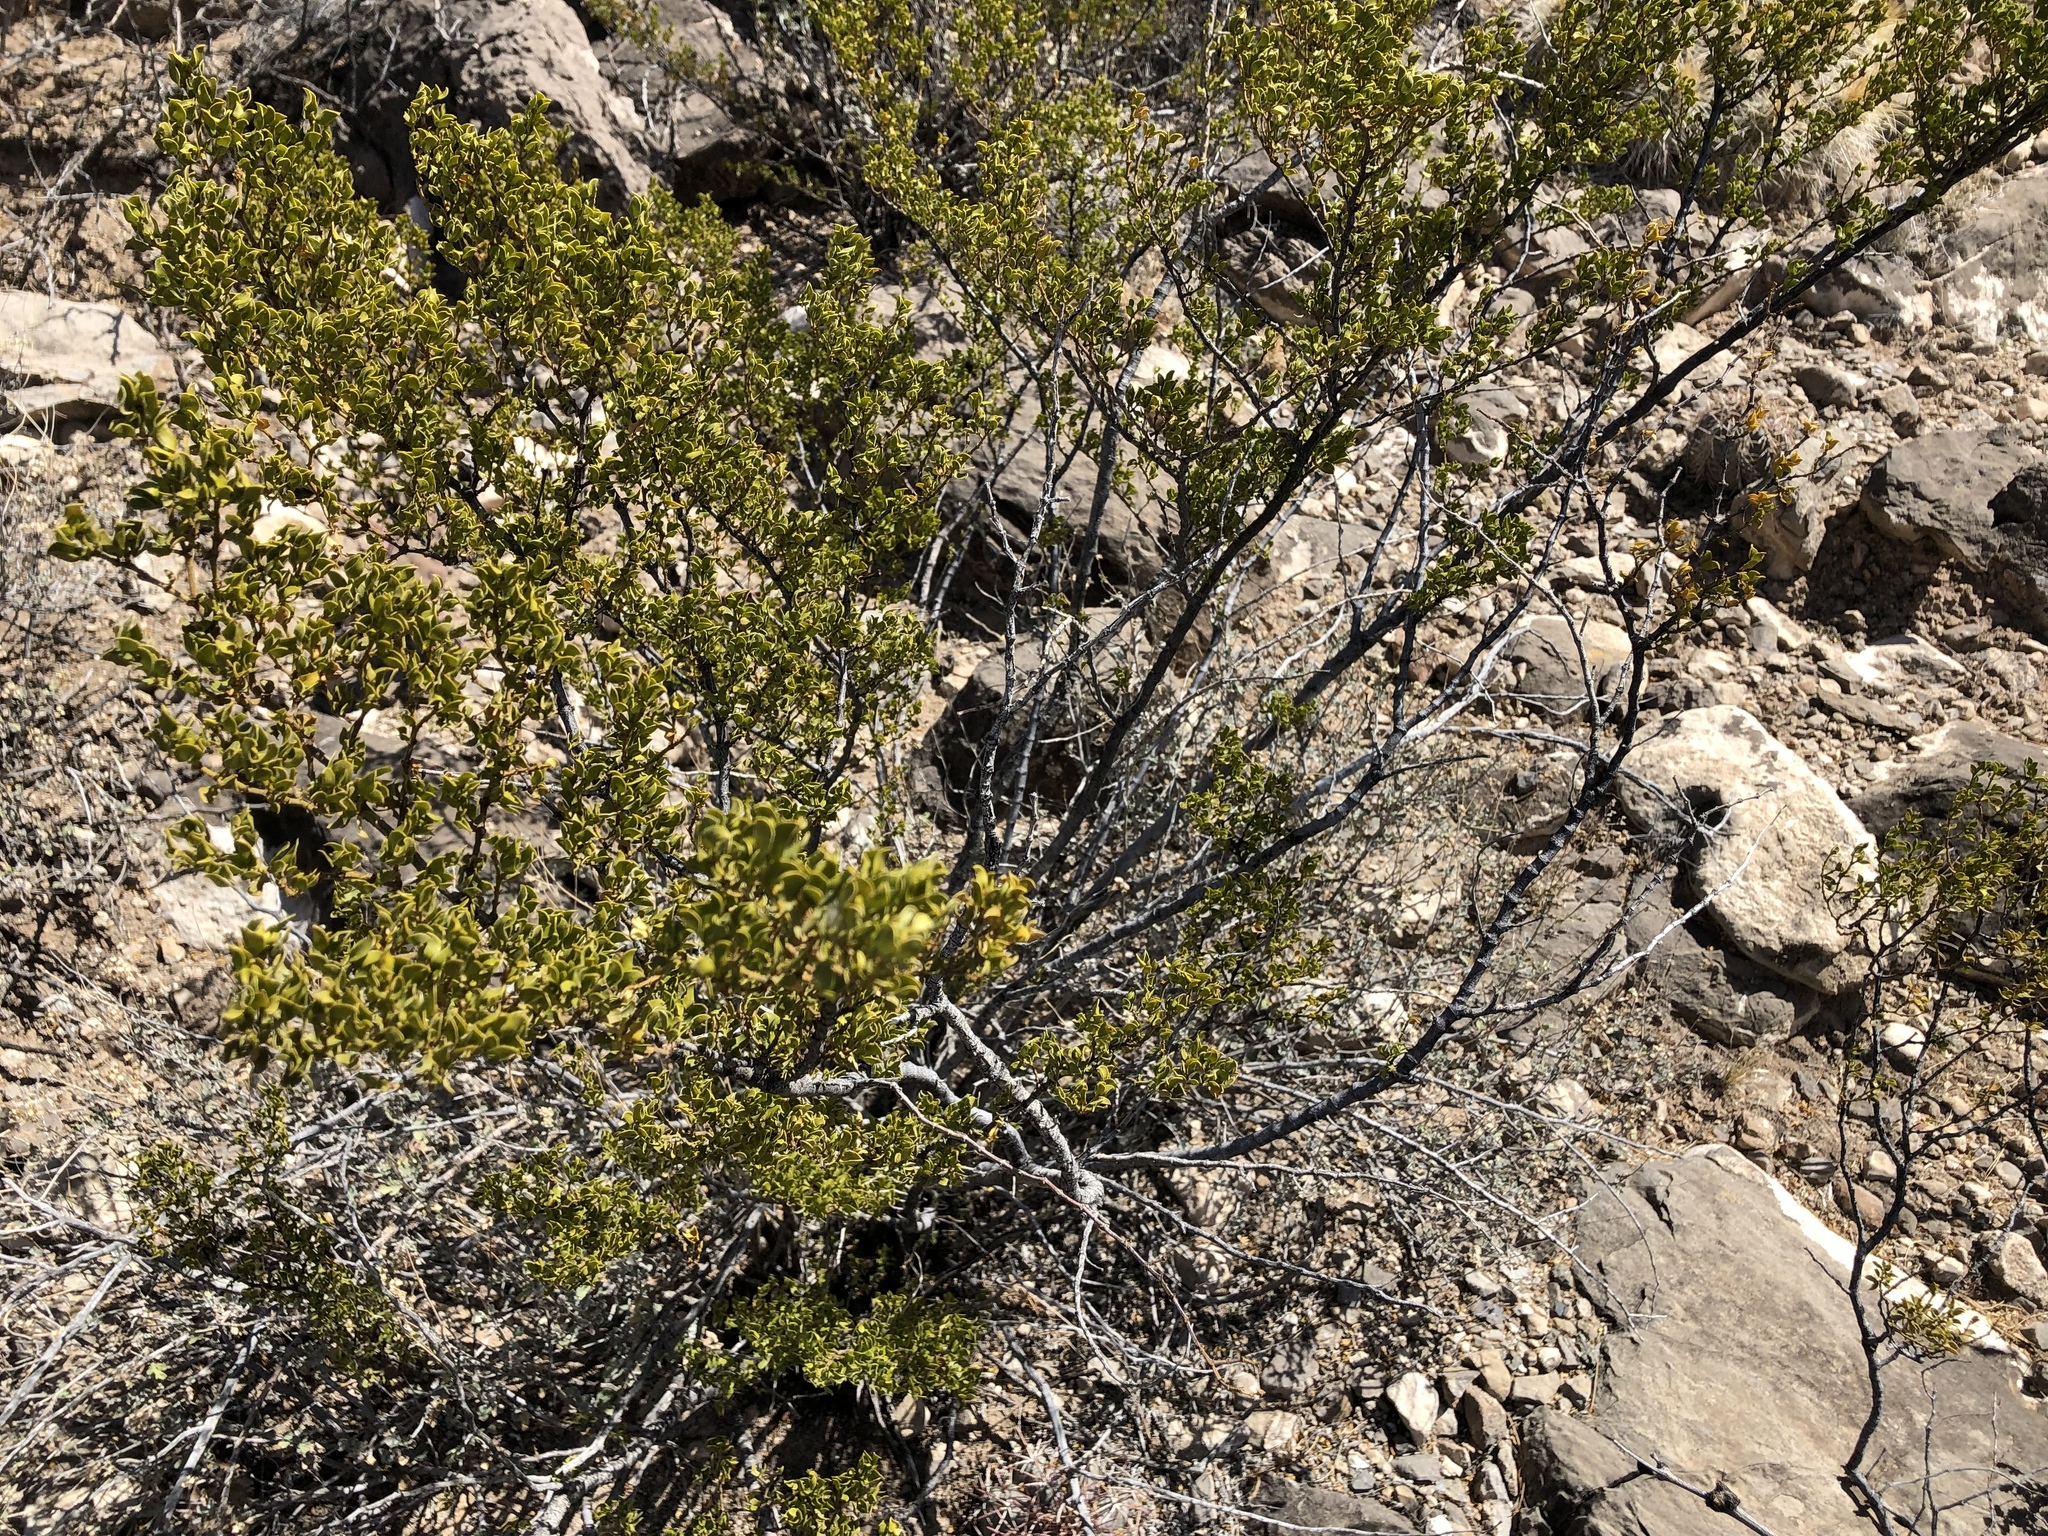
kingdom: Plantae
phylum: Tracheophyta
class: Magnoliopsida
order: Zygophyllales
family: Zygophyllaceae
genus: Larrea
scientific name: Larrea tridentata
